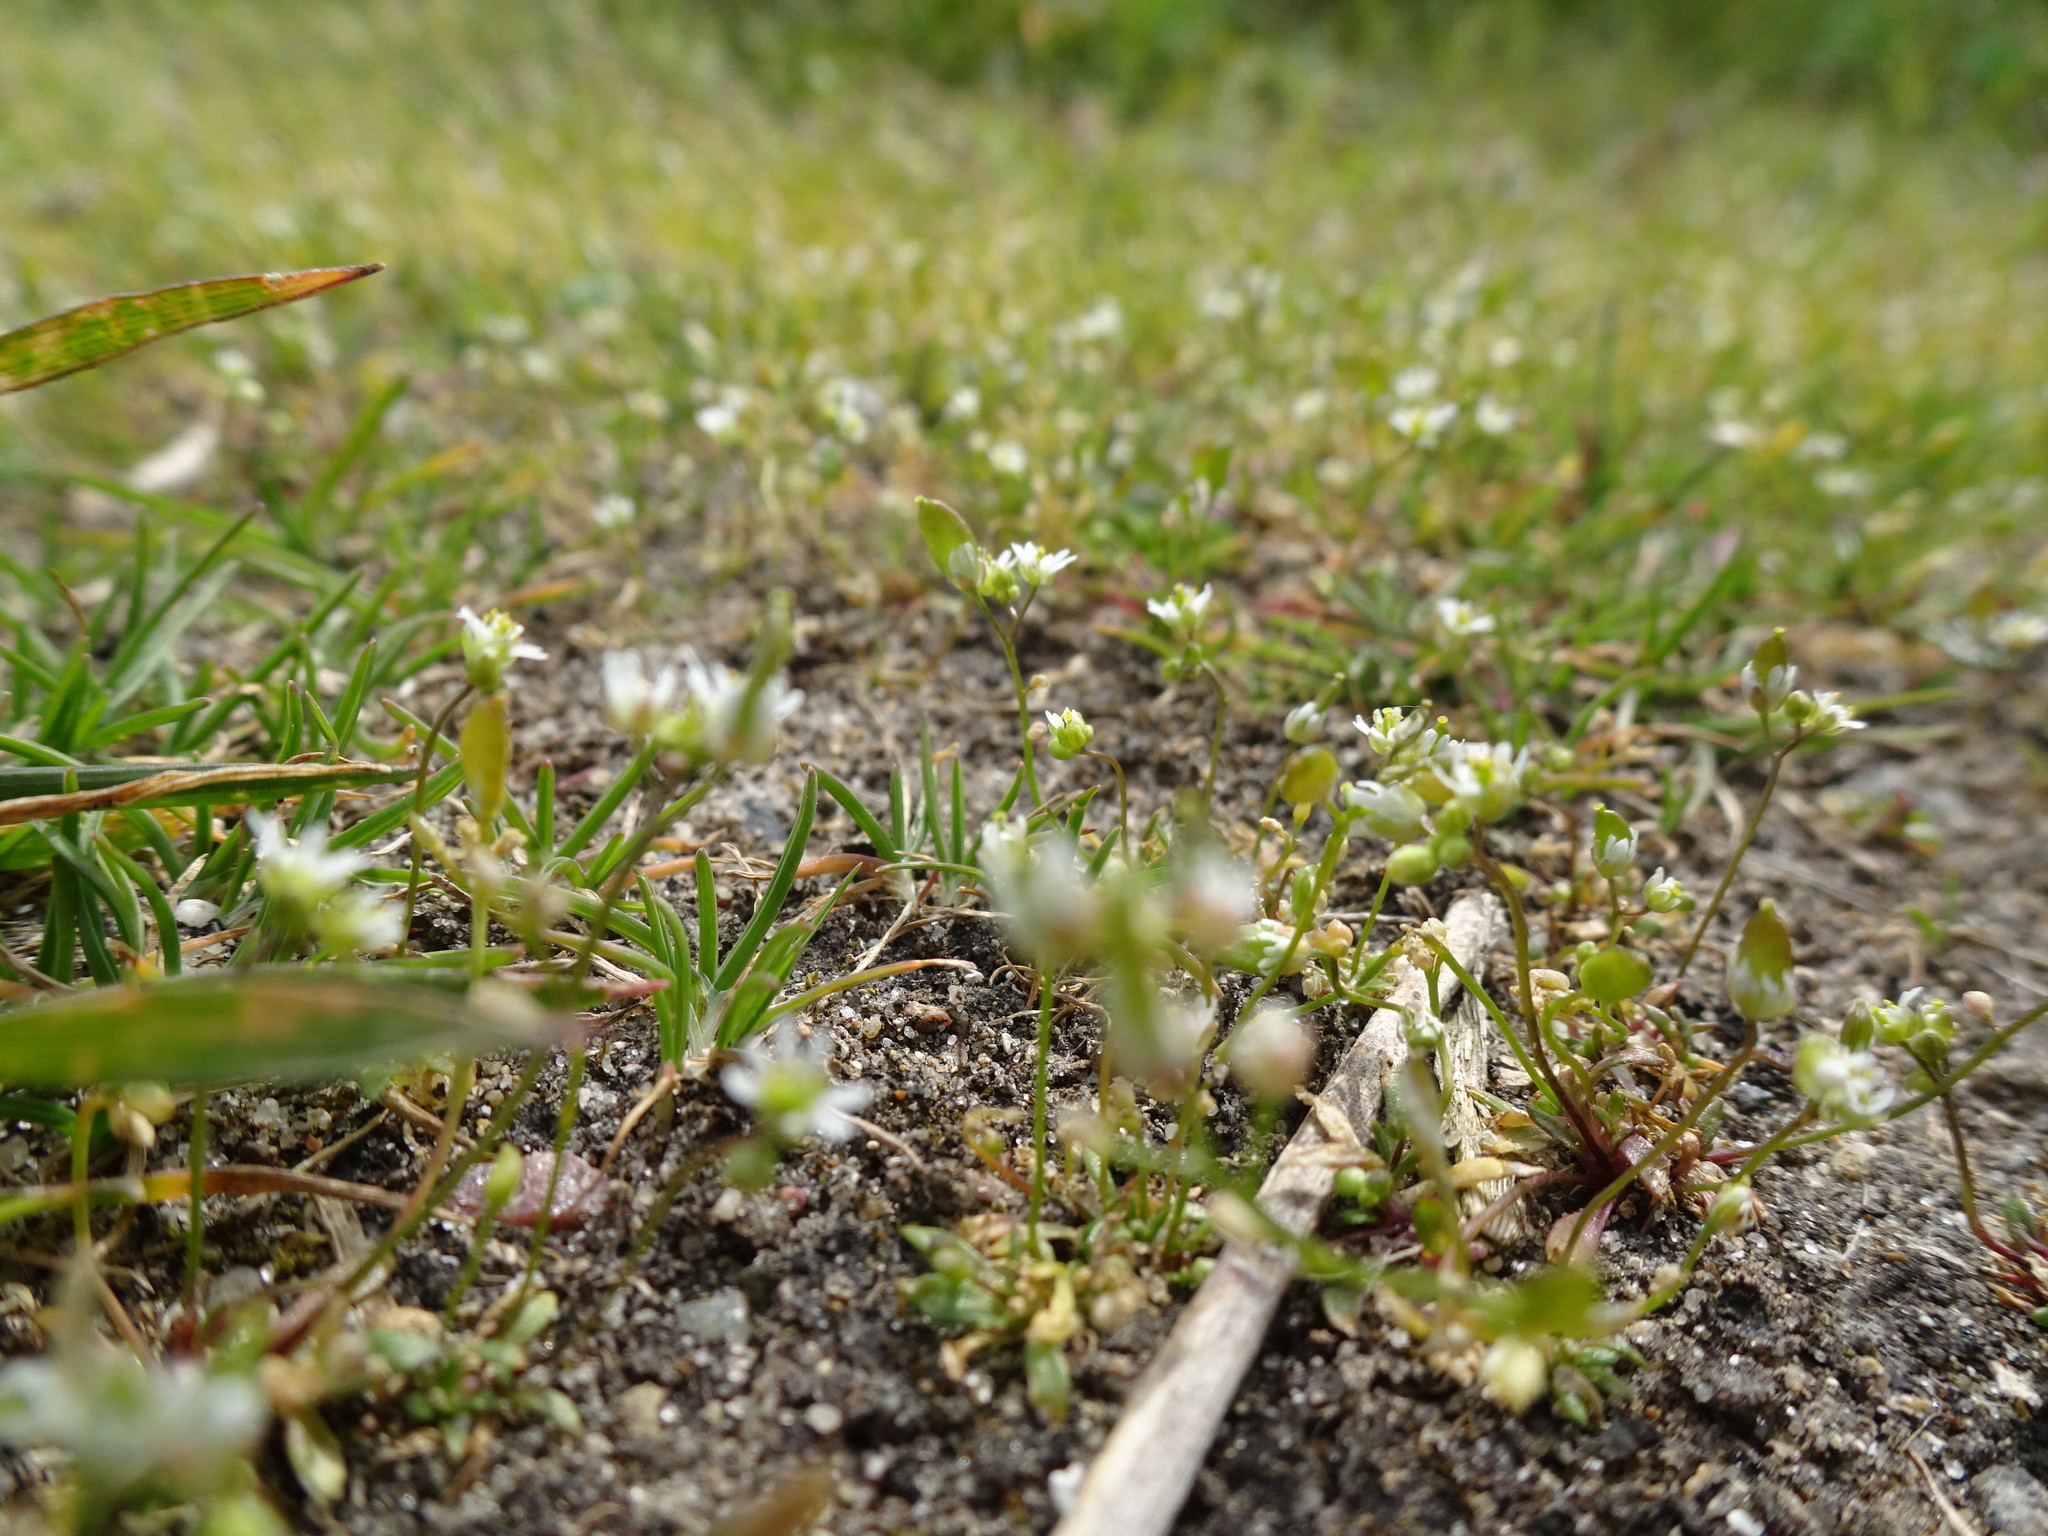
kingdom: Plantae
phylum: Tracheophyta
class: Magnoliopsida
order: Brassicales
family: Brassicaceae
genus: Draba
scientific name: Draba verna
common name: Spring draba
